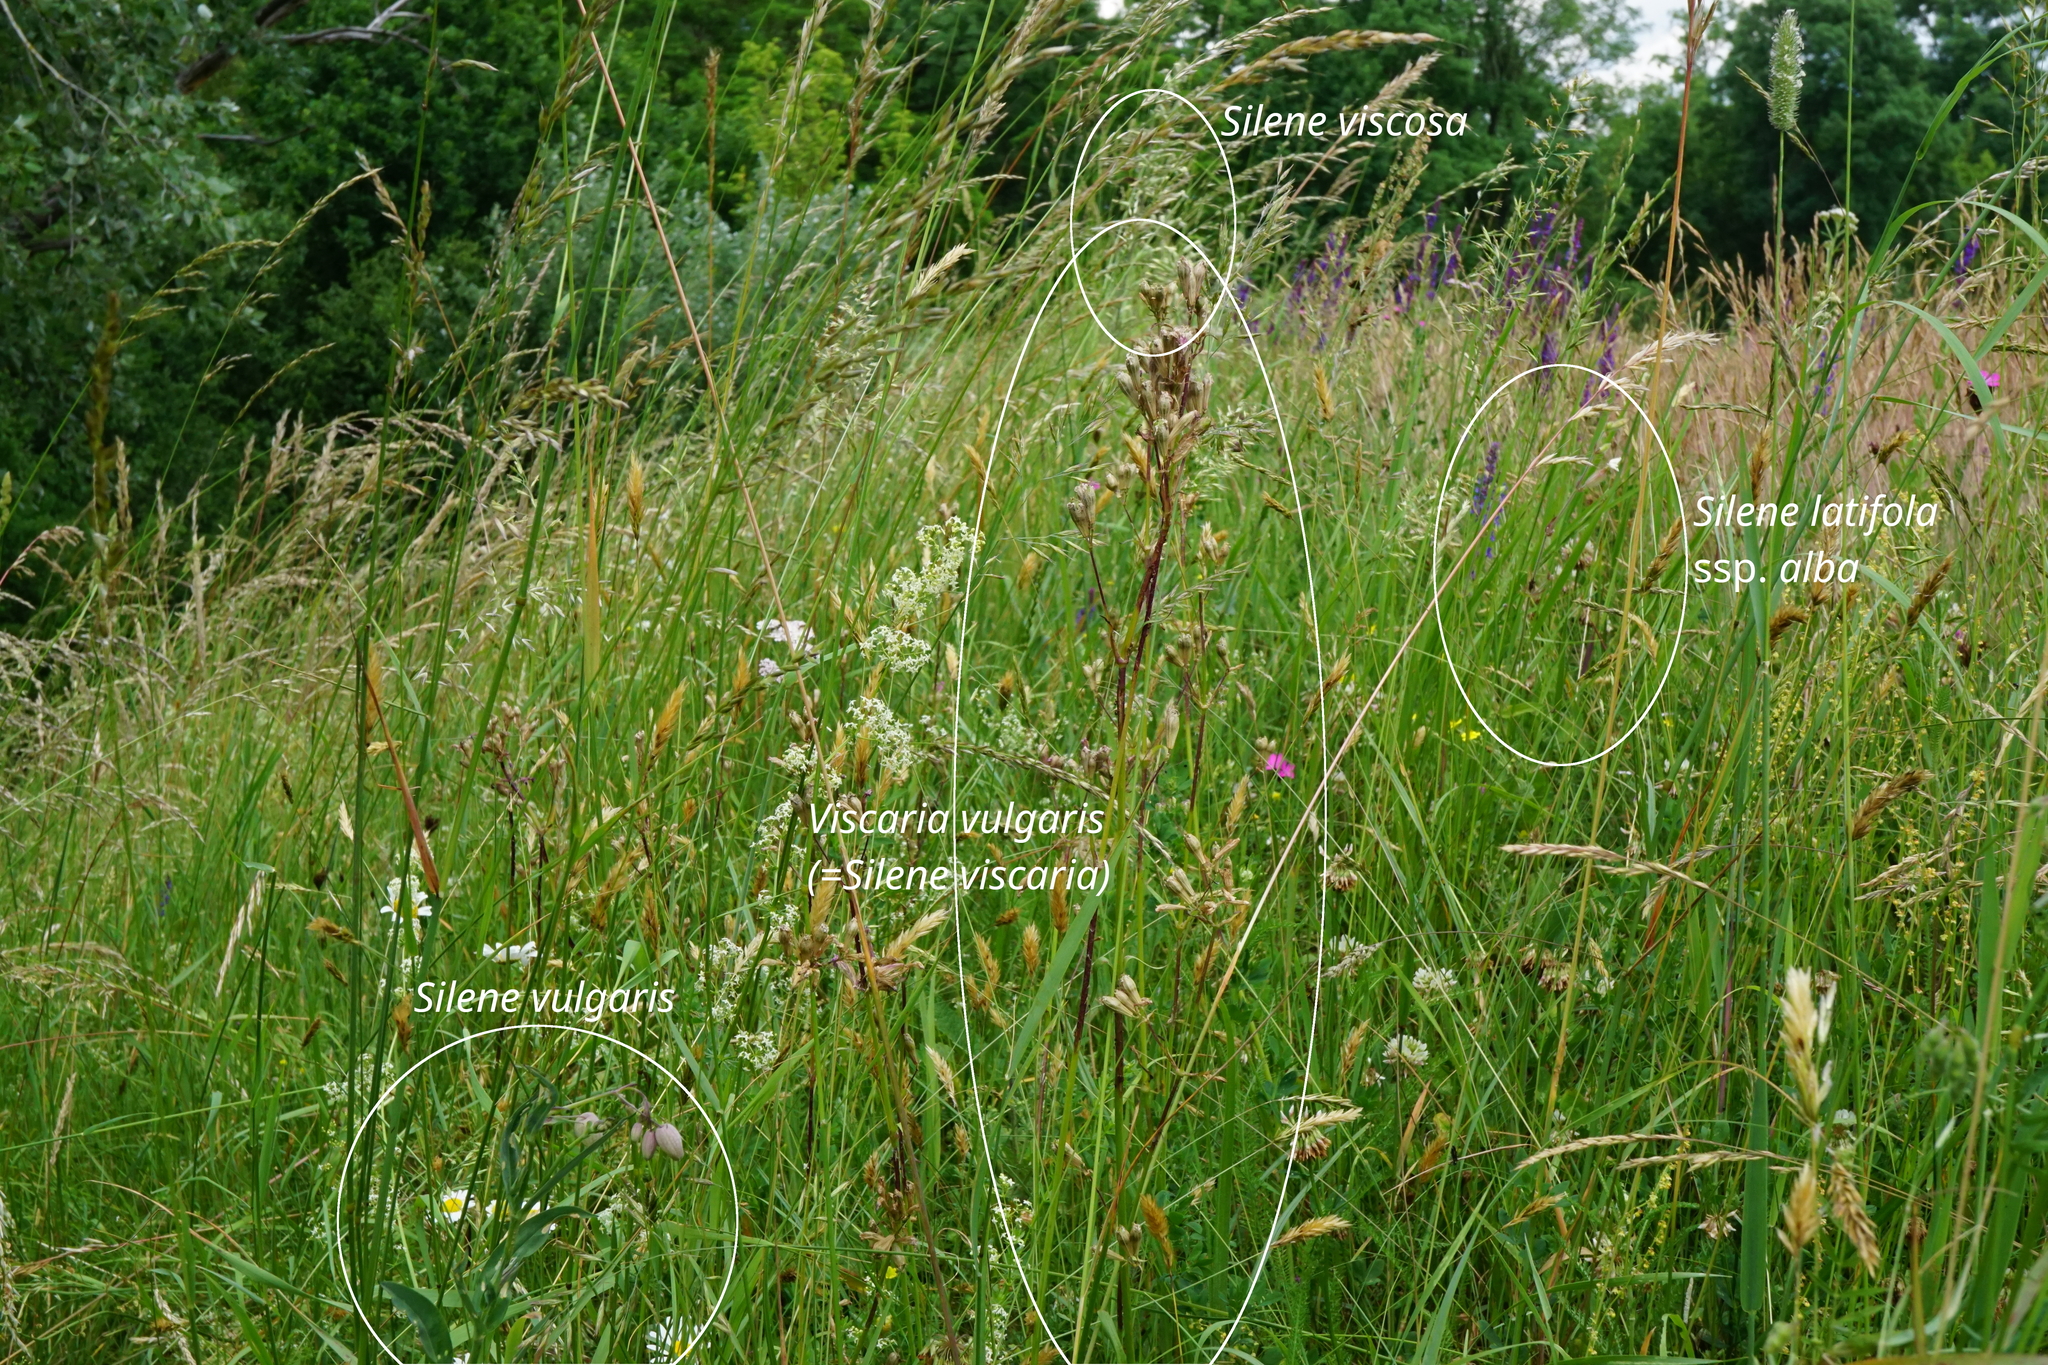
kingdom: Plantae
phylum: Tracheophyta
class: Magnoliopsida
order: Caryophyllales
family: Caryophyllaceae
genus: Silene
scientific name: Silene vulgaris
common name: Bladder campion
